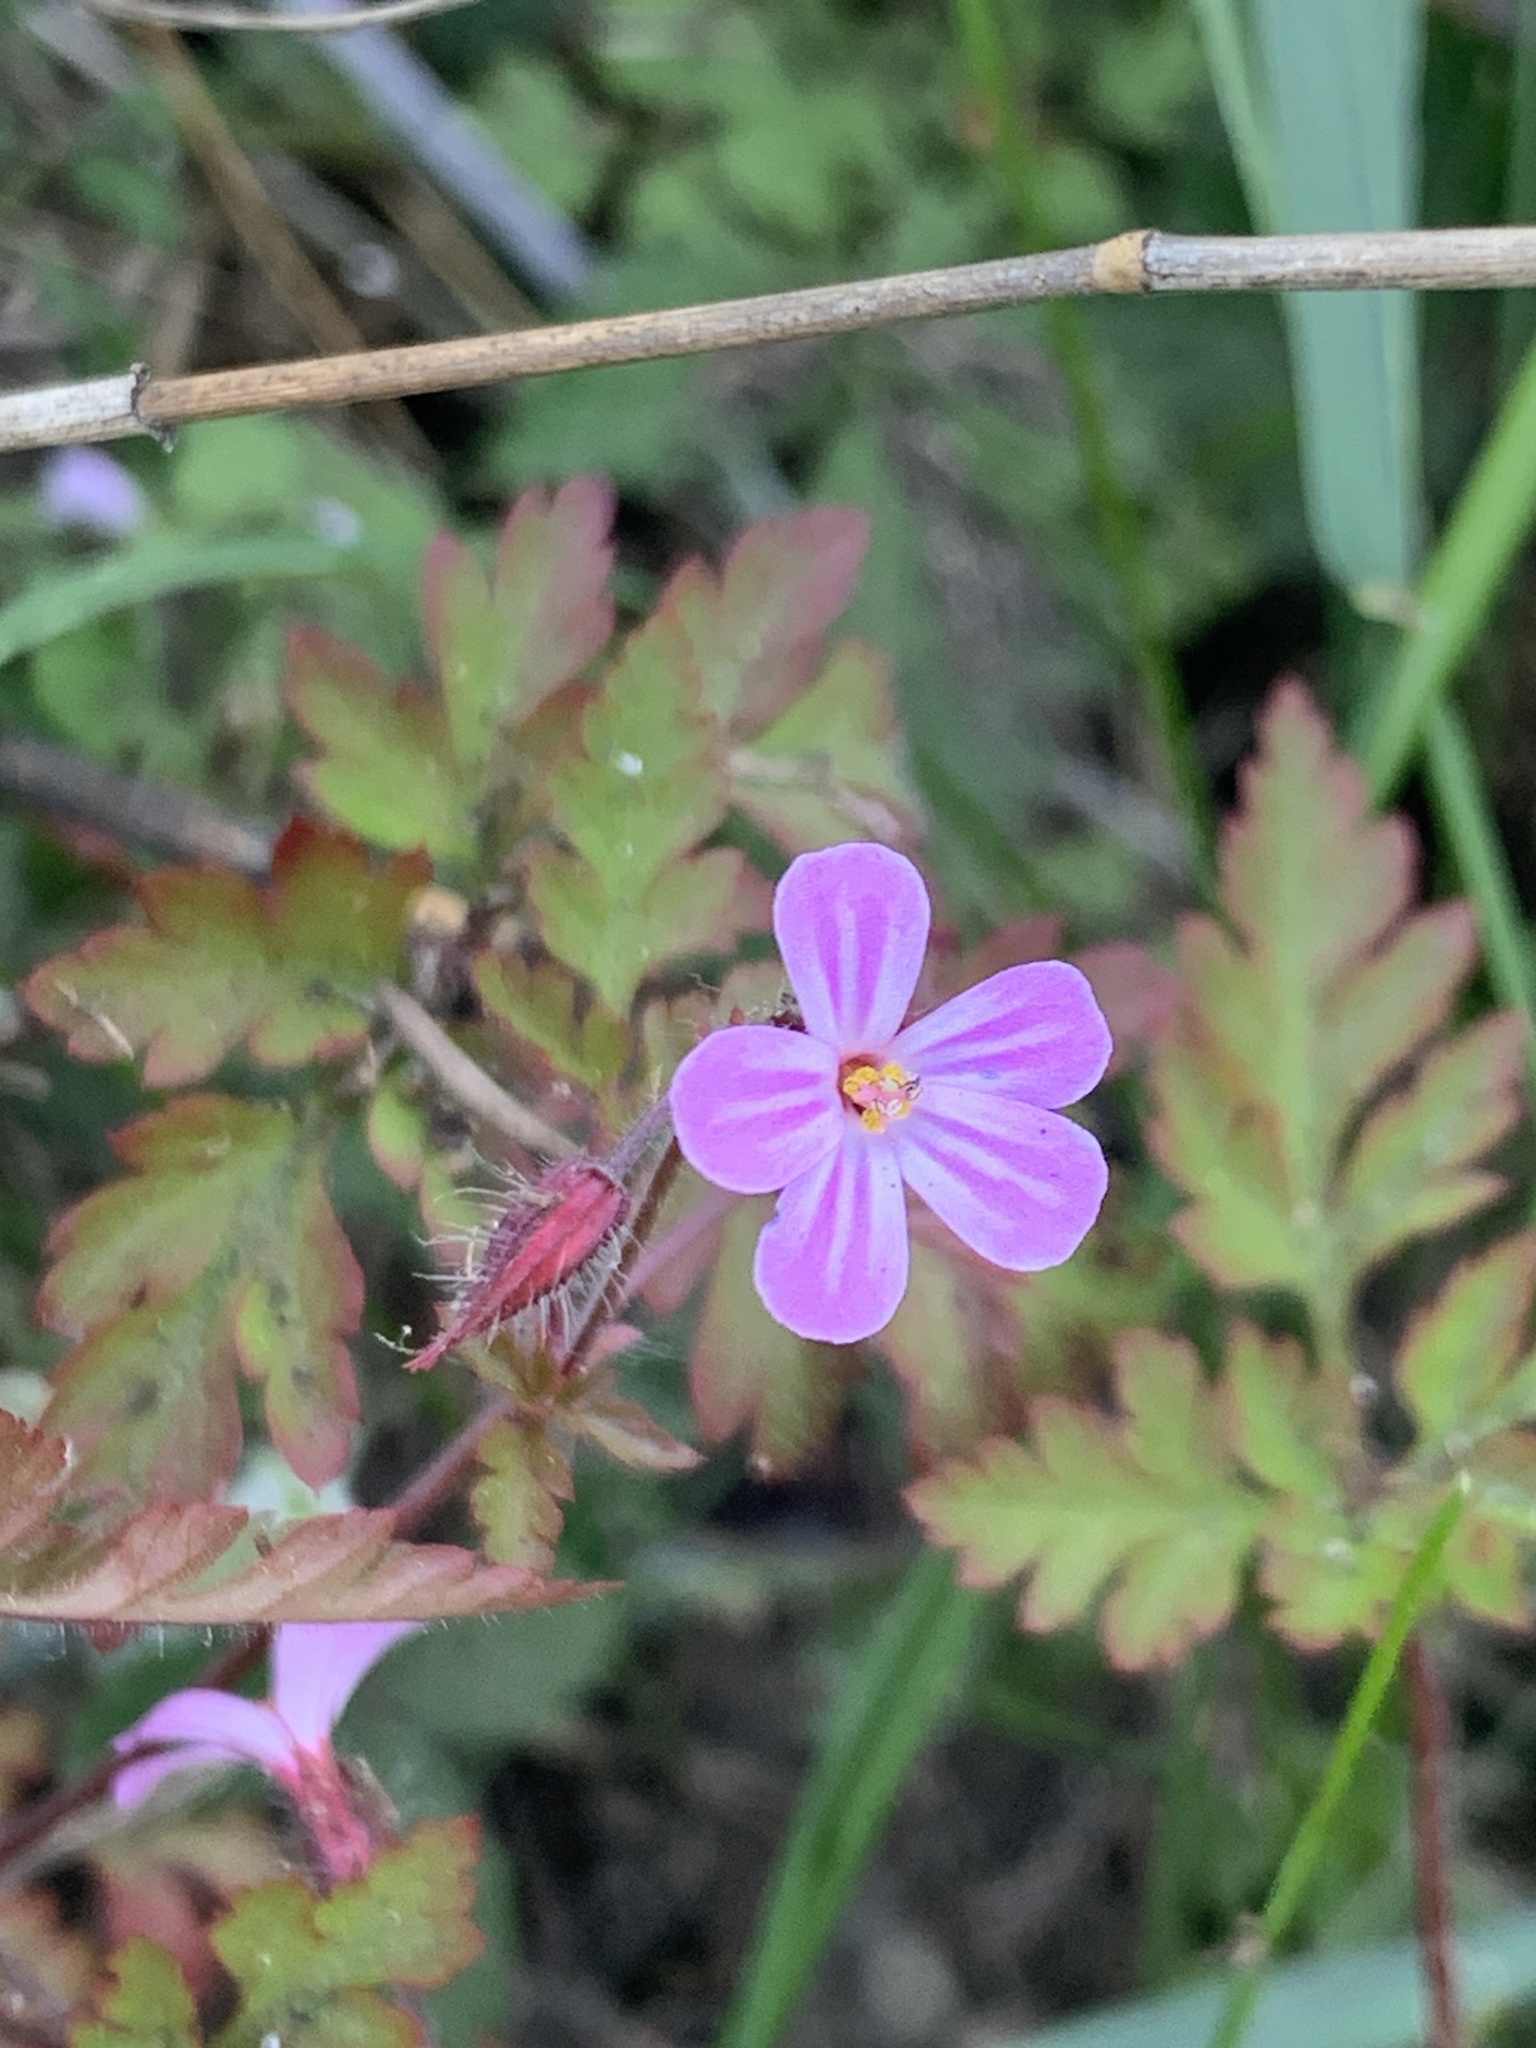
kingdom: Plantae
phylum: Tracheophyta
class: Magnoliopsida
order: Geraniales
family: Geraniaceae
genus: Geranium
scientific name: Geranium robertianum
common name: Herb-robert
